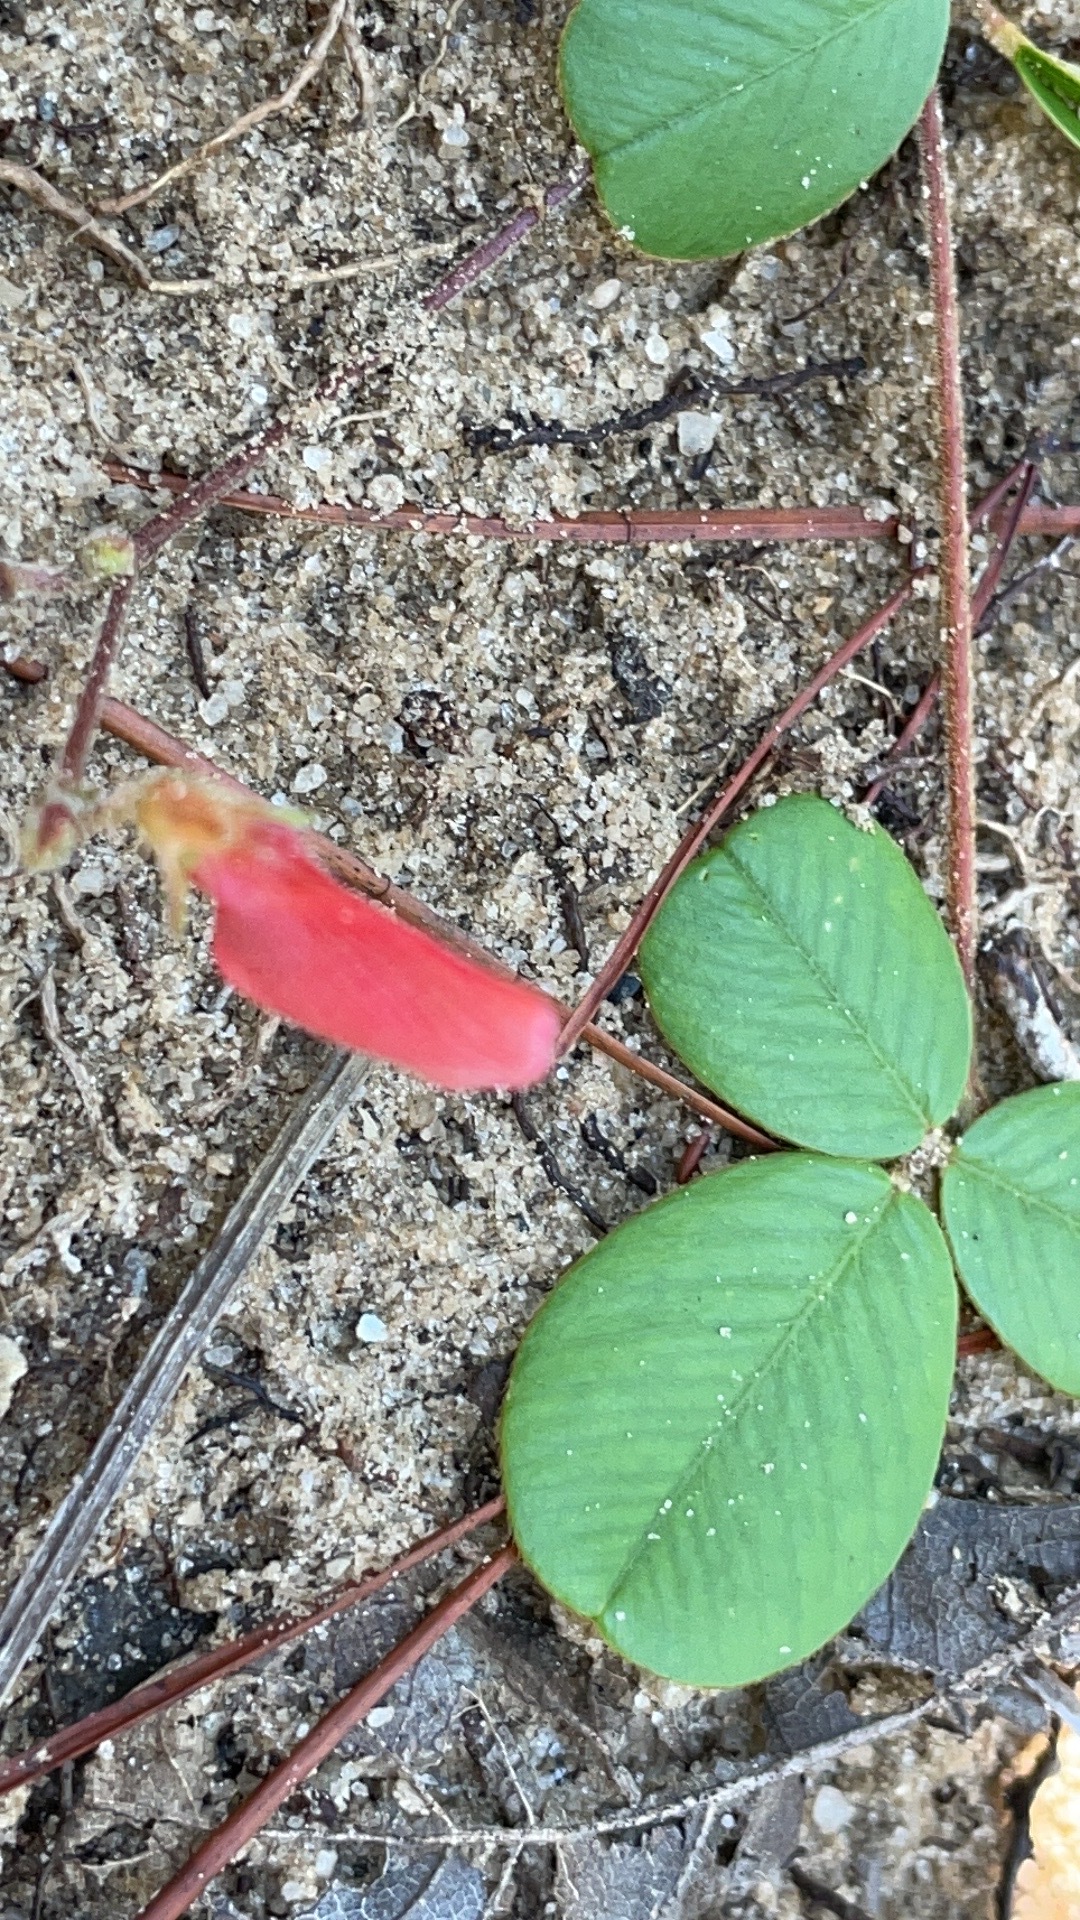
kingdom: Plantae
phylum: Tracheophyta
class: Magnoliopsida
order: Fabales
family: Fabaceae
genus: Tephrosia
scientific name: Tephrosia chrysophylla
